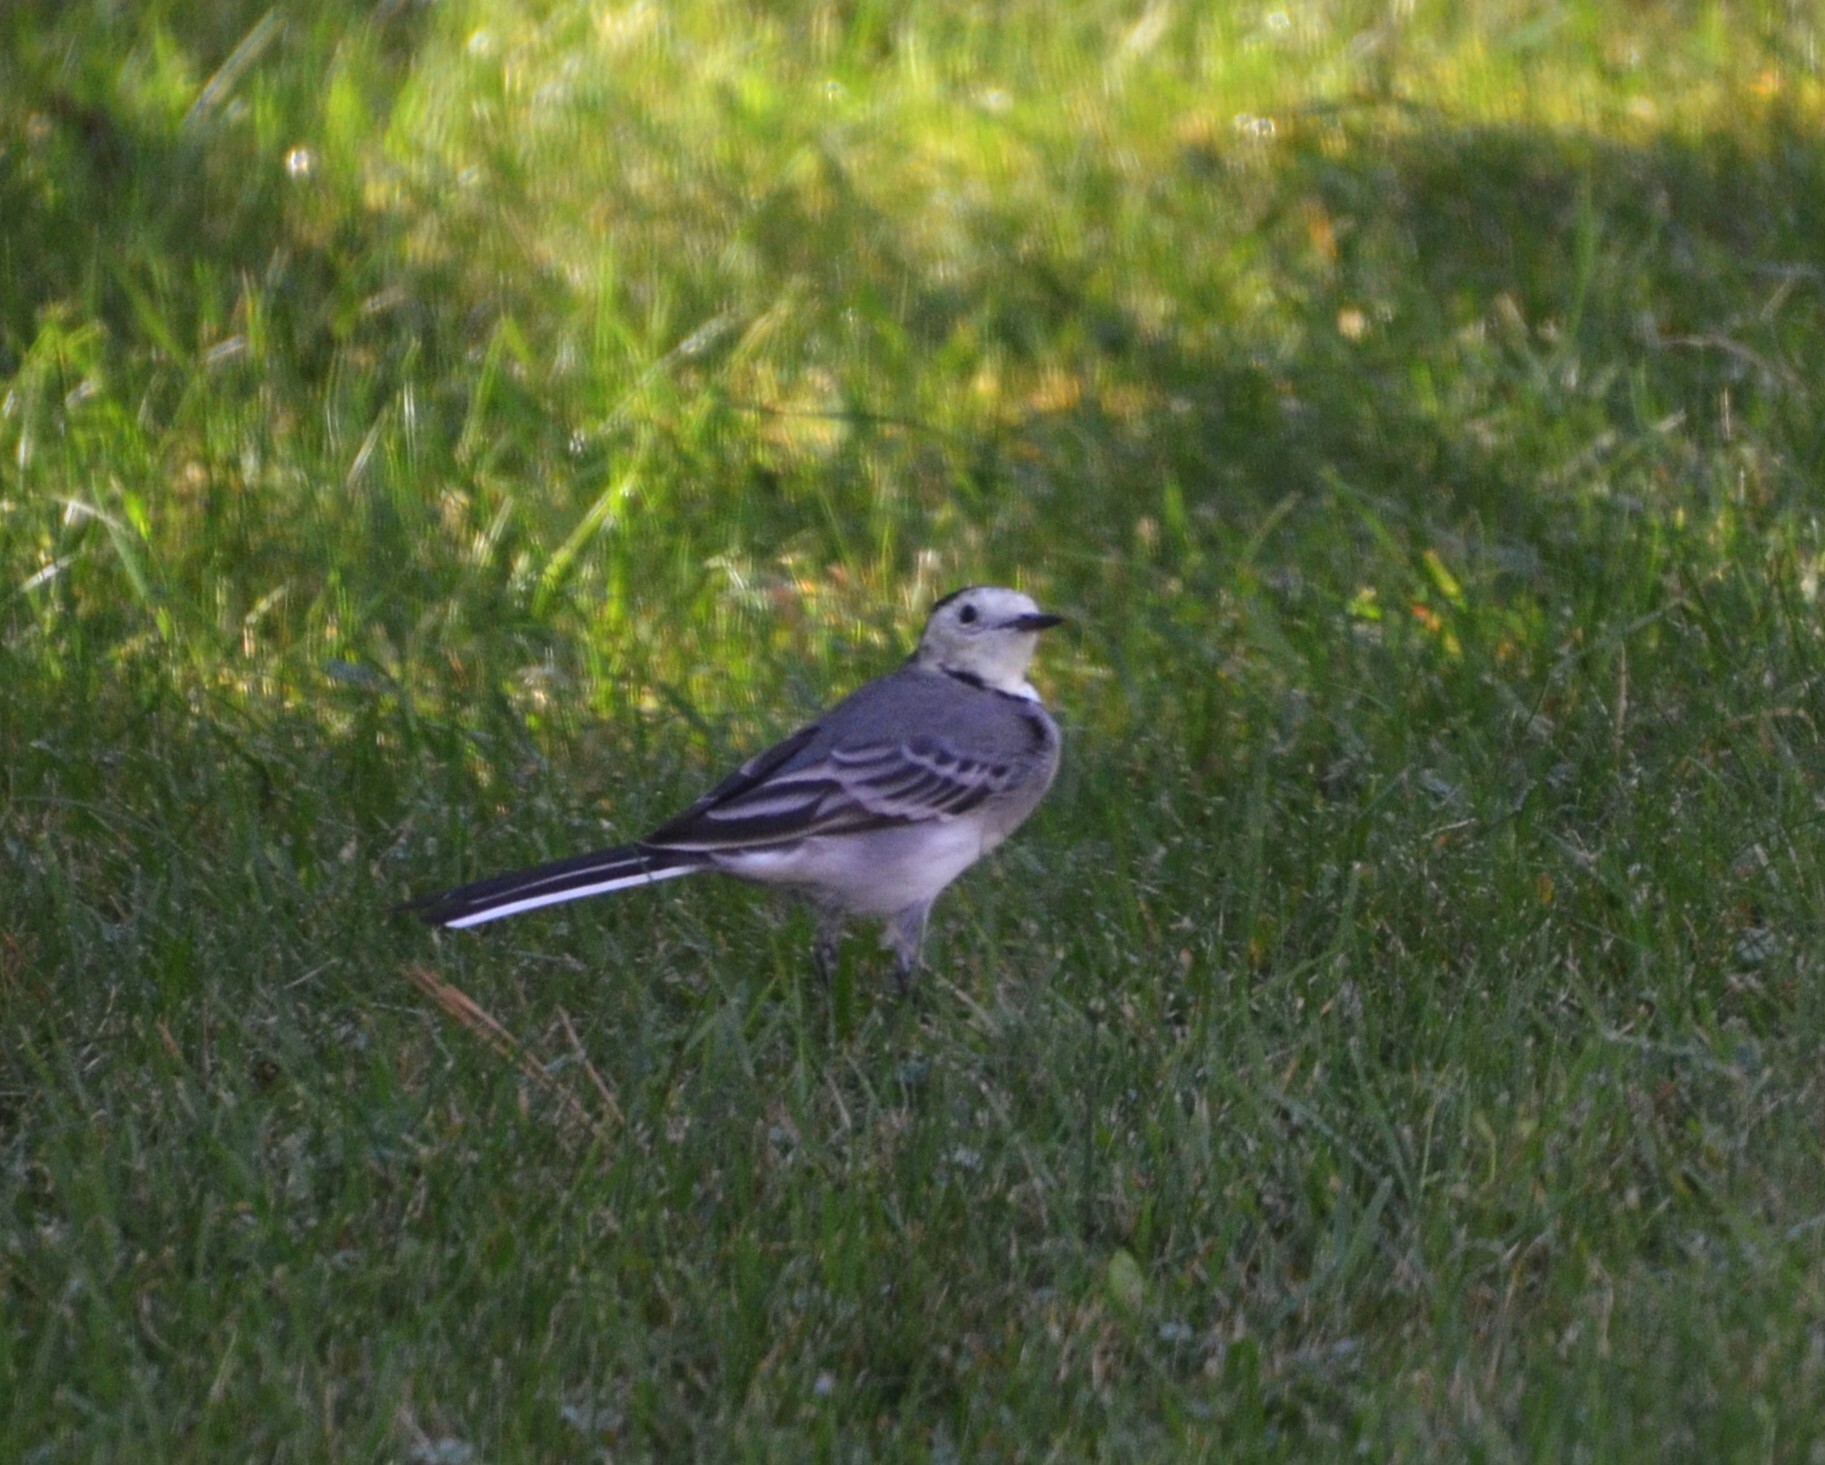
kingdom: Animalia
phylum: Chordata
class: Aves
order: Passeriformes
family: Motacillidae
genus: Motacilla
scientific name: Motacilla alba
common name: White wagtail
